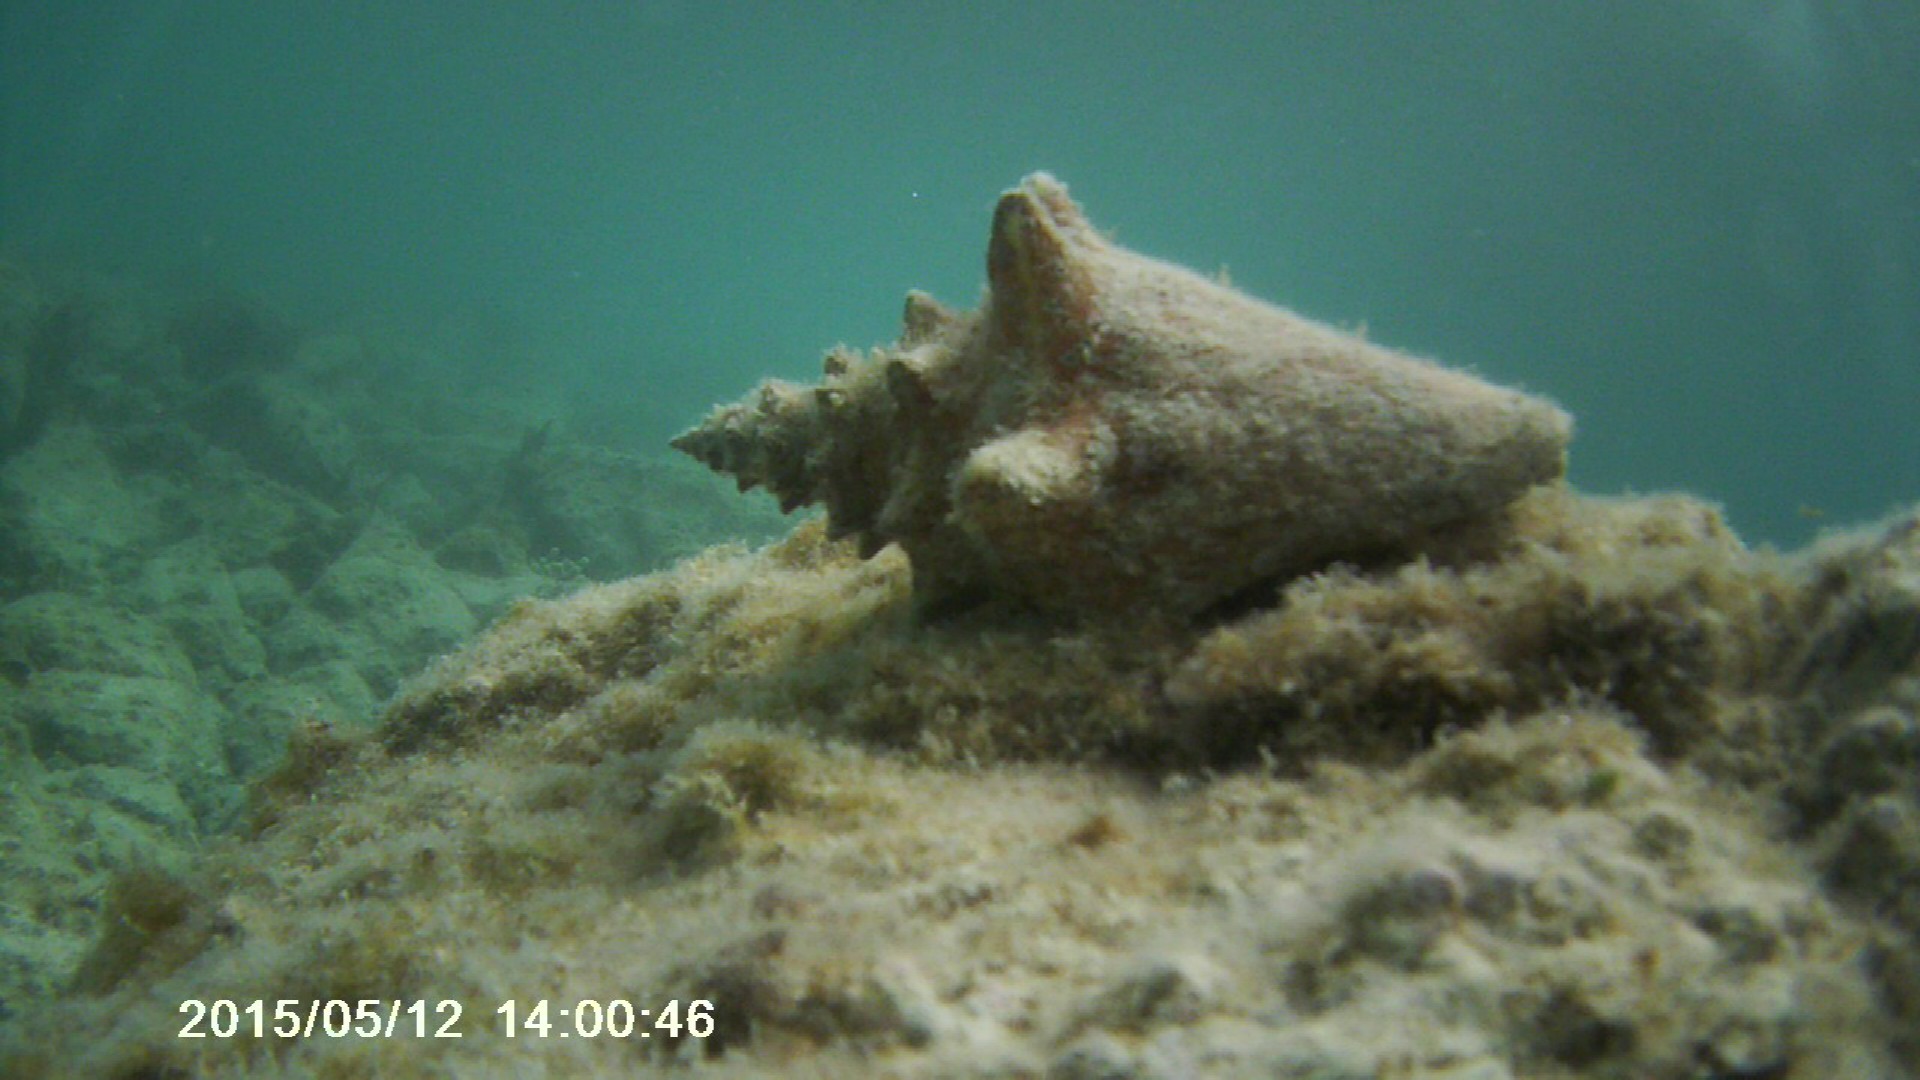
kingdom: Animalia
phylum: Mollusca
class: Gastropoda
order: Littorinimorpha
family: Strombidae
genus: Aliger
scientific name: Aliger gigas
